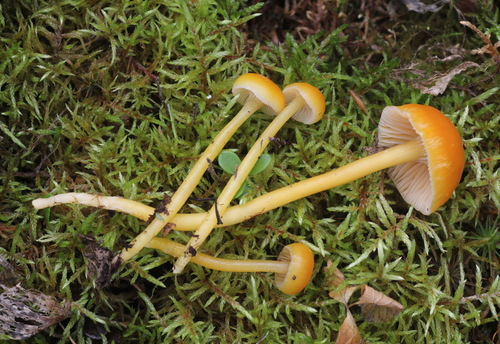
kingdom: Fungi
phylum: Basidiomycota
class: Agaricomycetes
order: Agaricales
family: Hygrophoraceae
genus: Gliophorus
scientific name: Gliophorus laetus
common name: Heath waxcap
